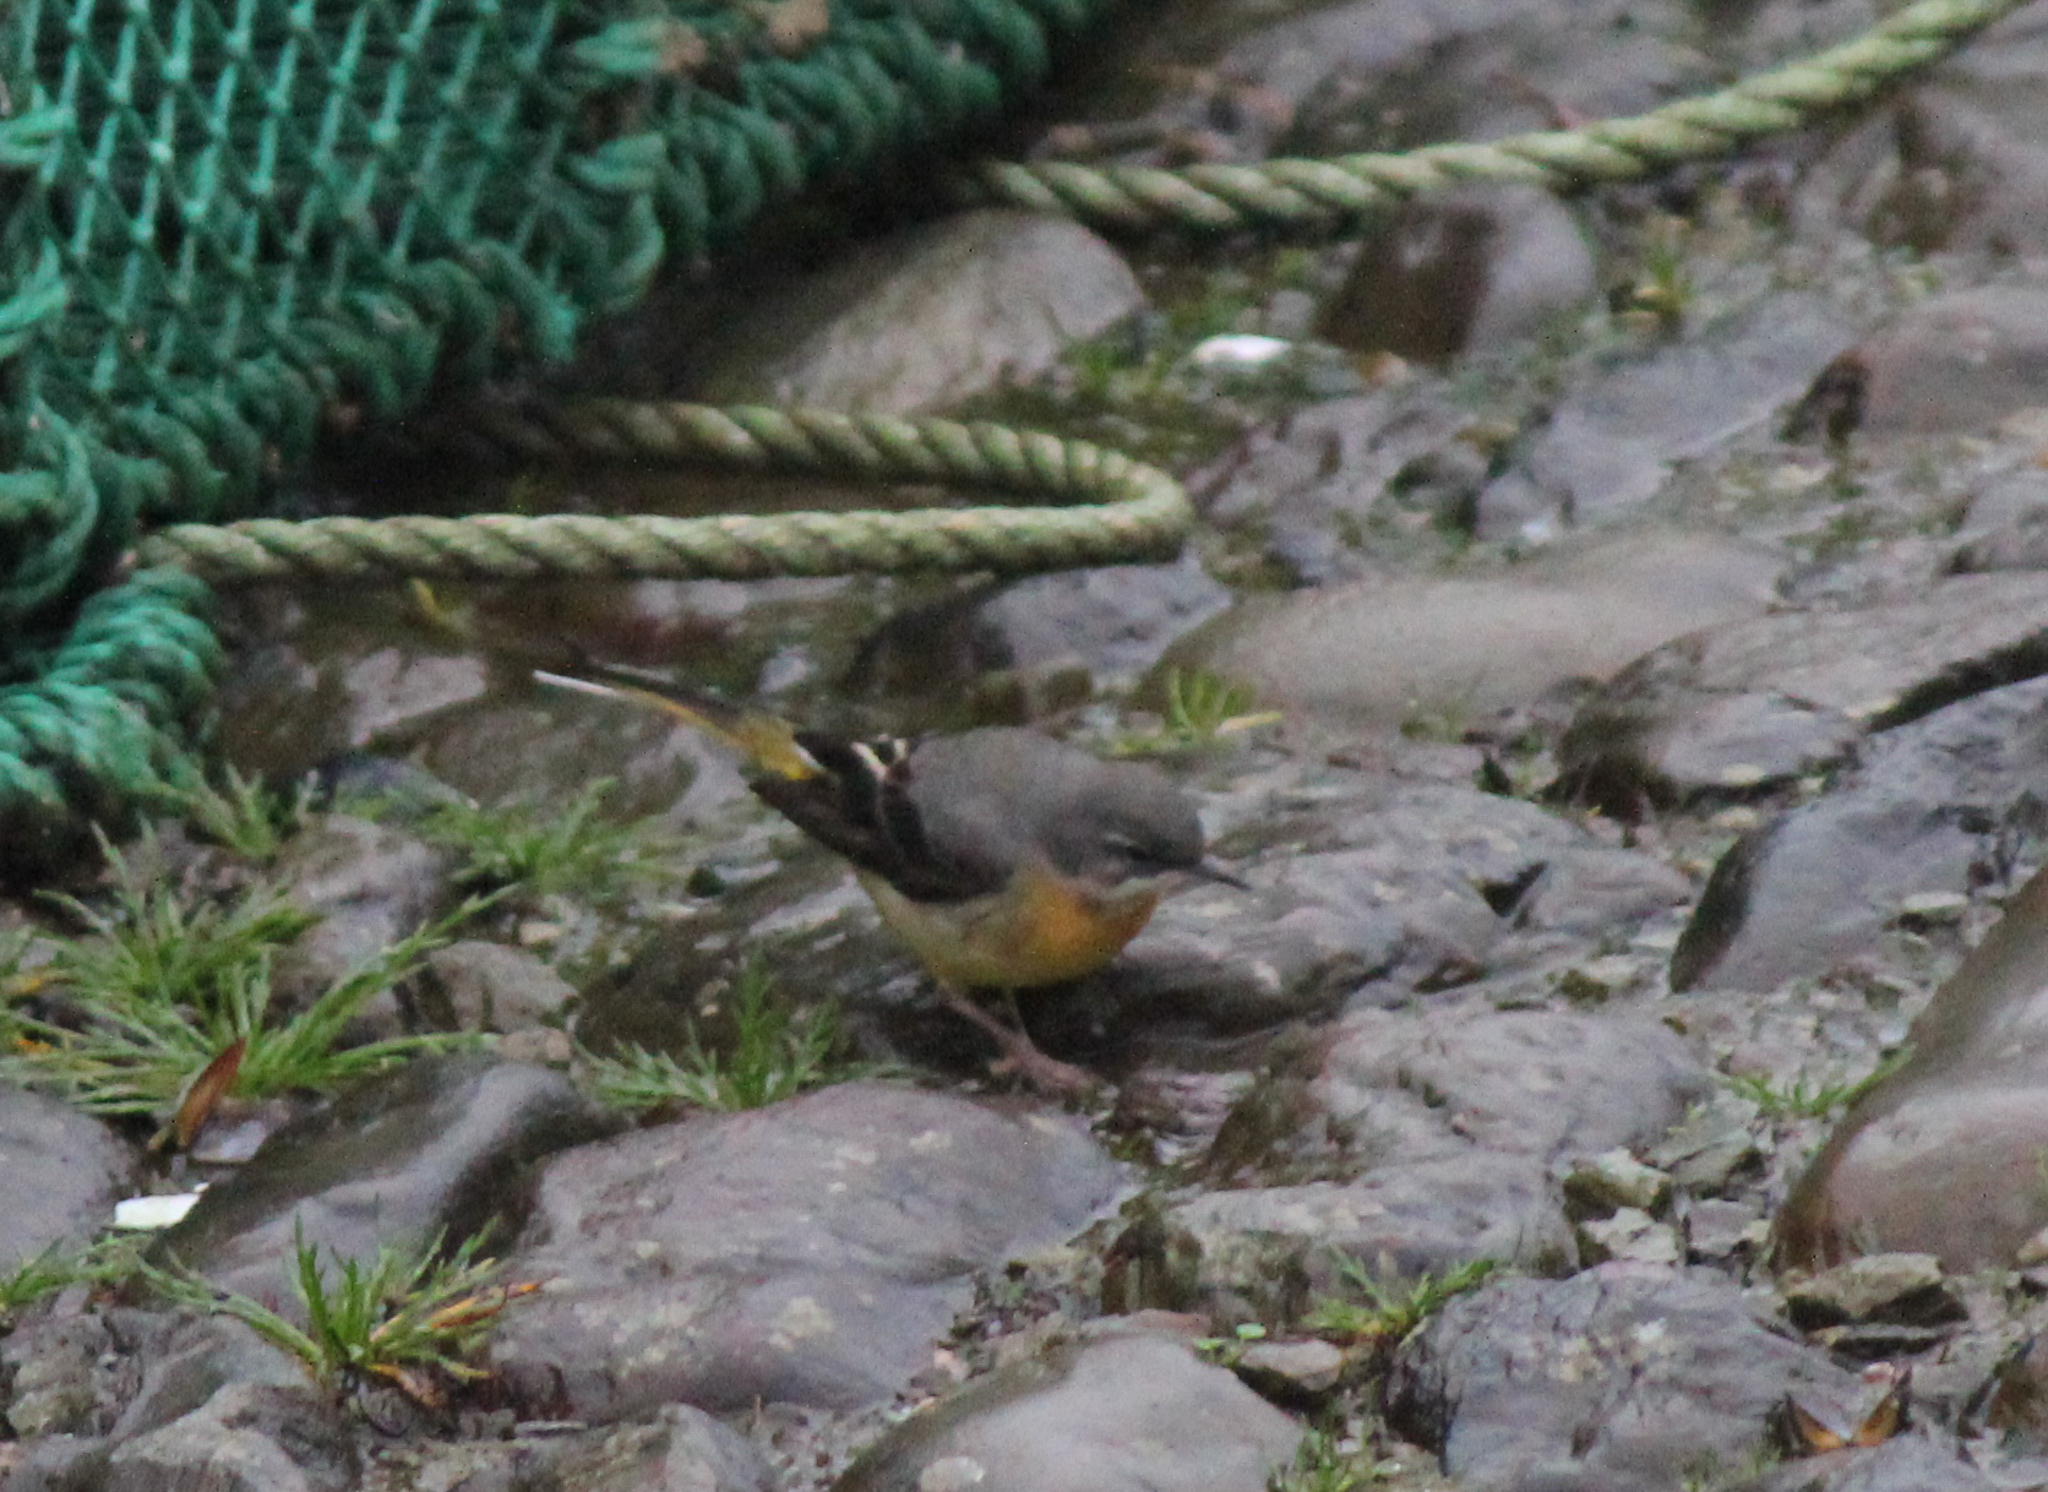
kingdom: Animalia
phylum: Chordata
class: Aves
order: Passeriformes
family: Motacillidae
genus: Motacilla
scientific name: Motacilla cinerea
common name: Grey wagtail
